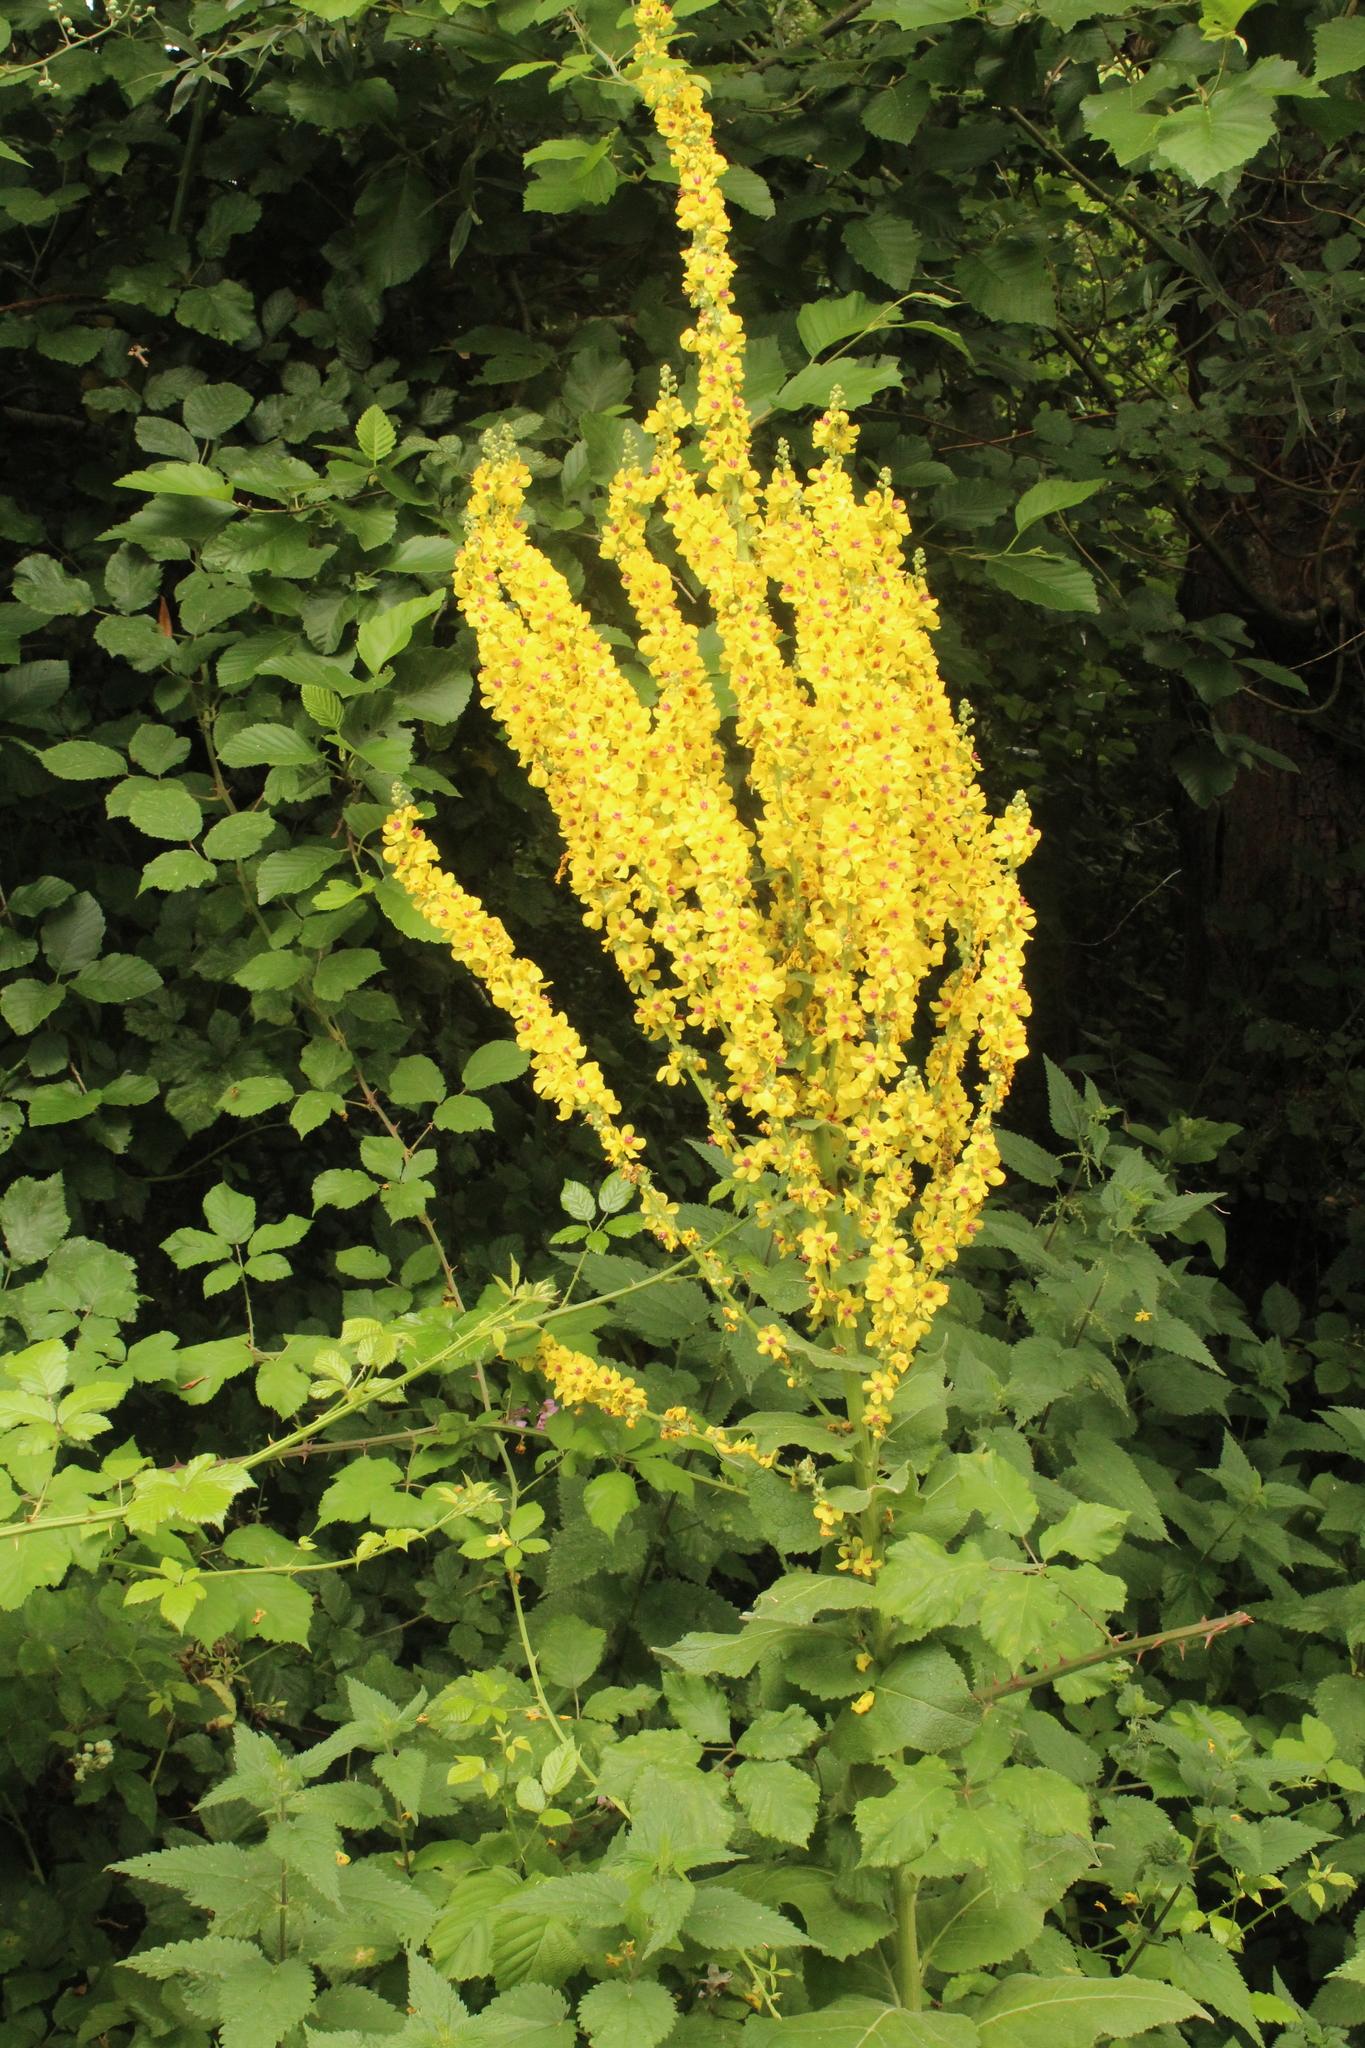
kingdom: Plantae
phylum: Tracheophyta
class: Magnoliopsida
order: Lamiales
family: Scrophulariaceae
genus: Verbascum
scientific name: Verbascum nigrum
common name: Dark mullein
